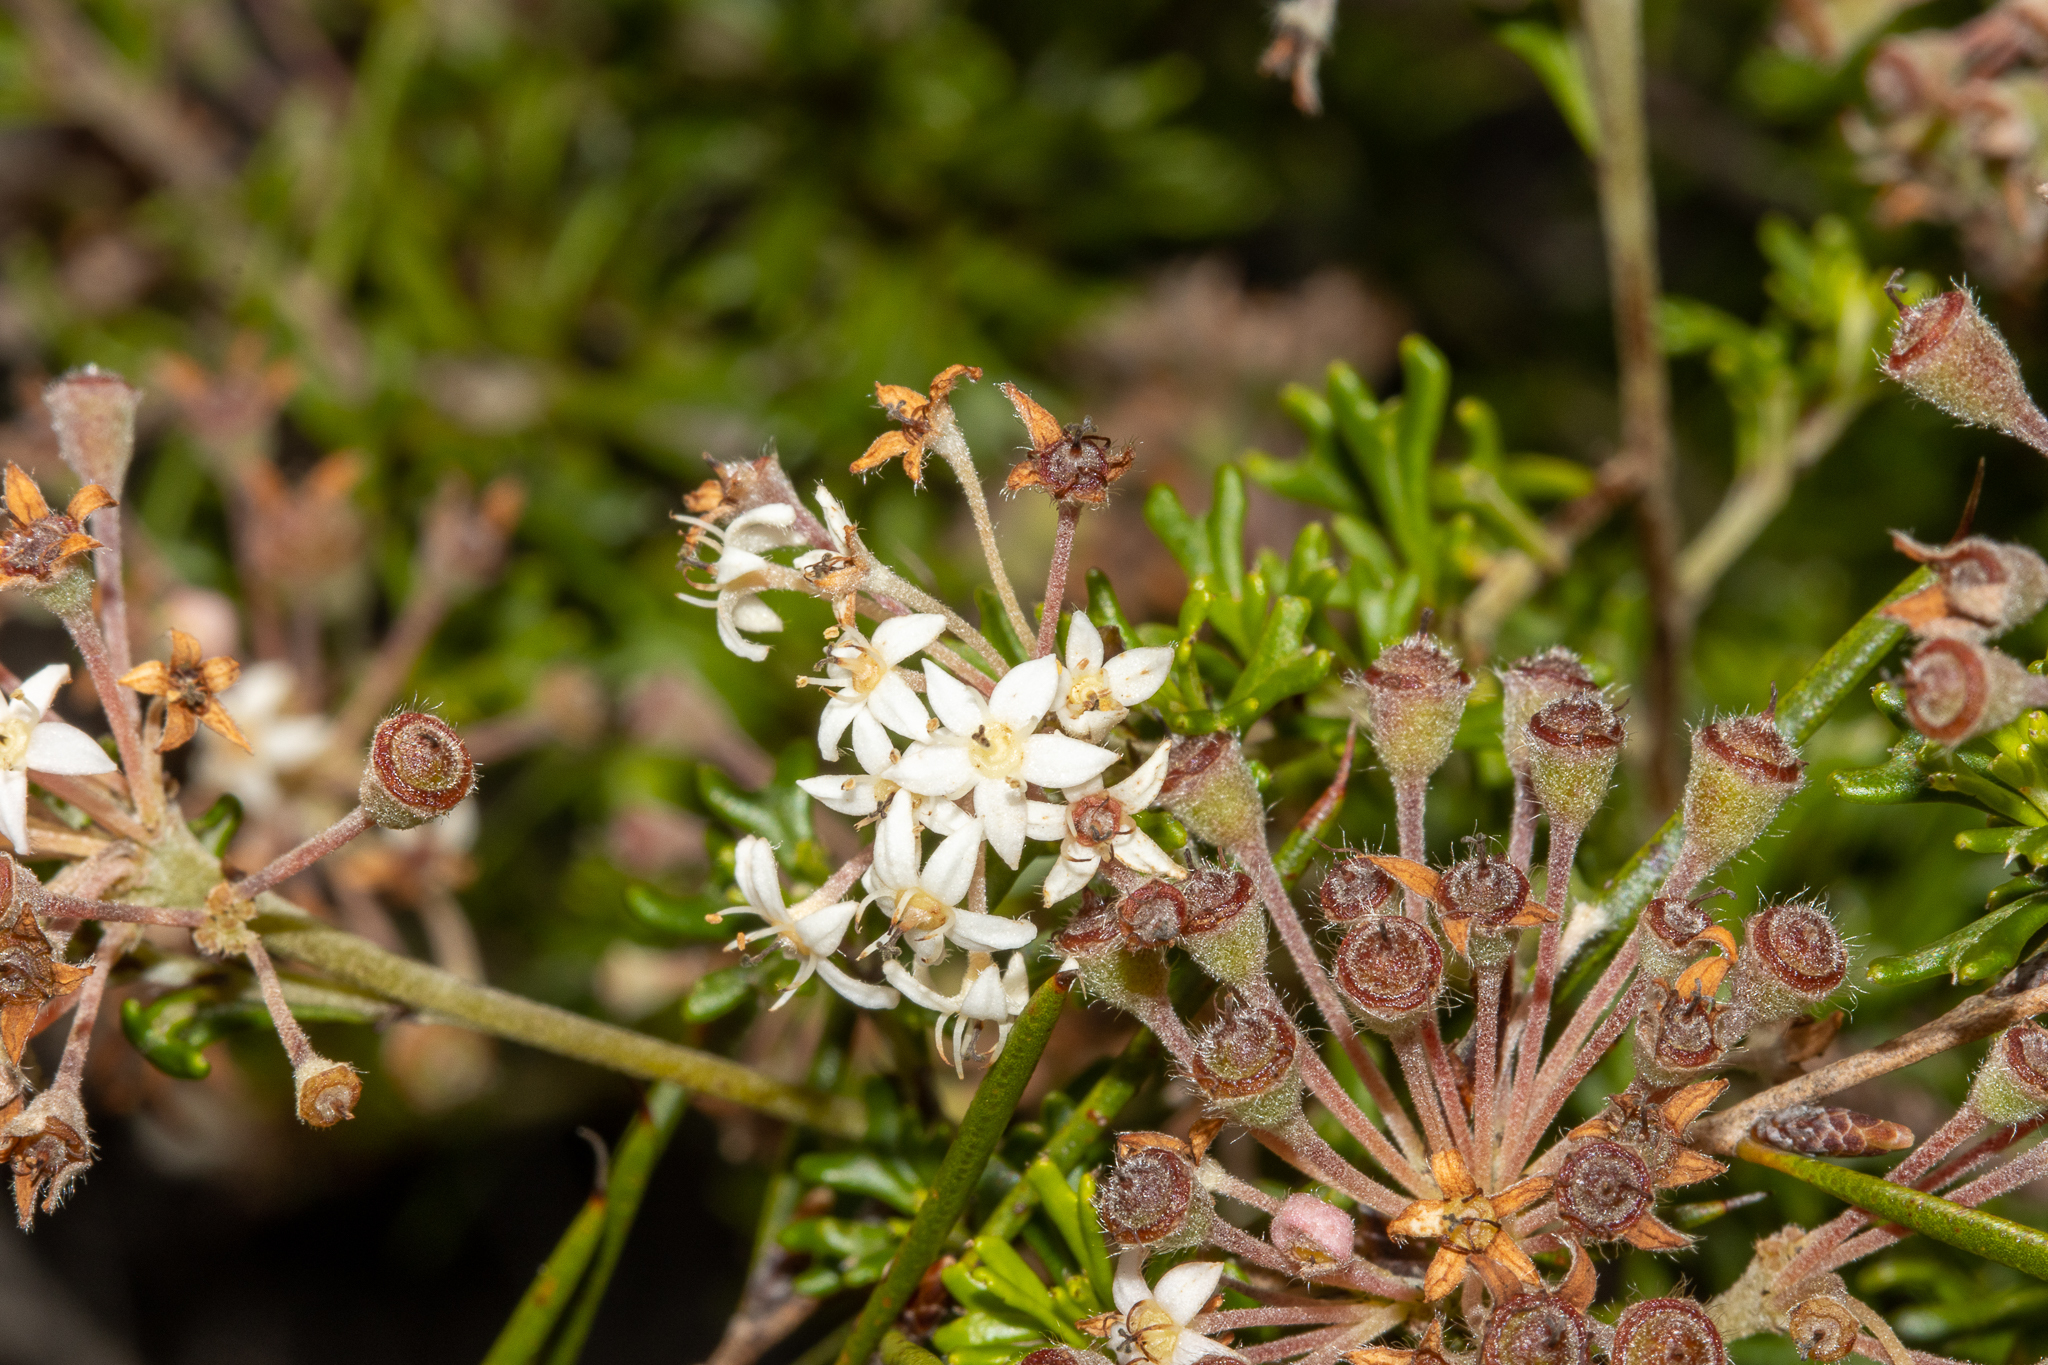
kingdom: Plantae
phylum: Tracheophyta
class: Magnoliopsida
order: Rosales
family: Rhamnaceae
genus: Pomaderris
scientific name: Pomaderris obcordata
